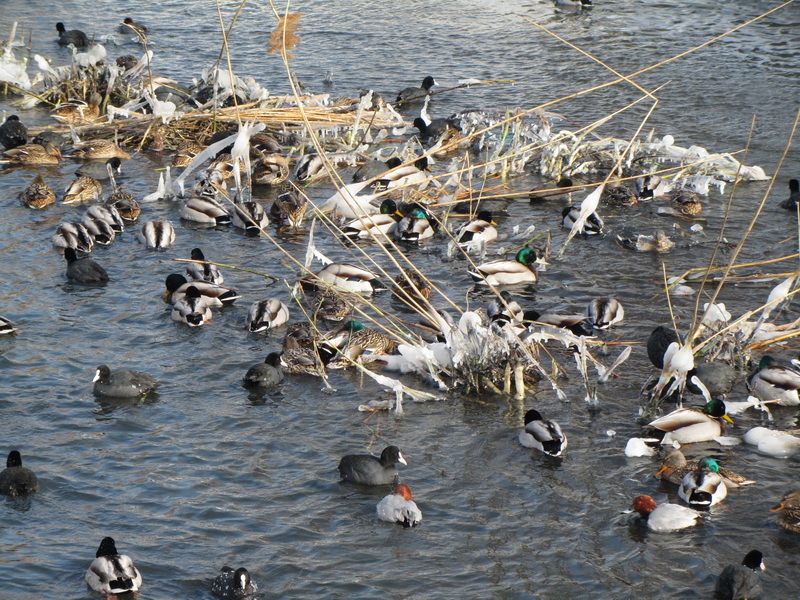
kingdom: Animalia
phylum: Chordata
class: Aves
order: Anseriformes
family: Anatidae
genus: Anas
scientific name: Anas platyrhynchos
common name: Mallard
